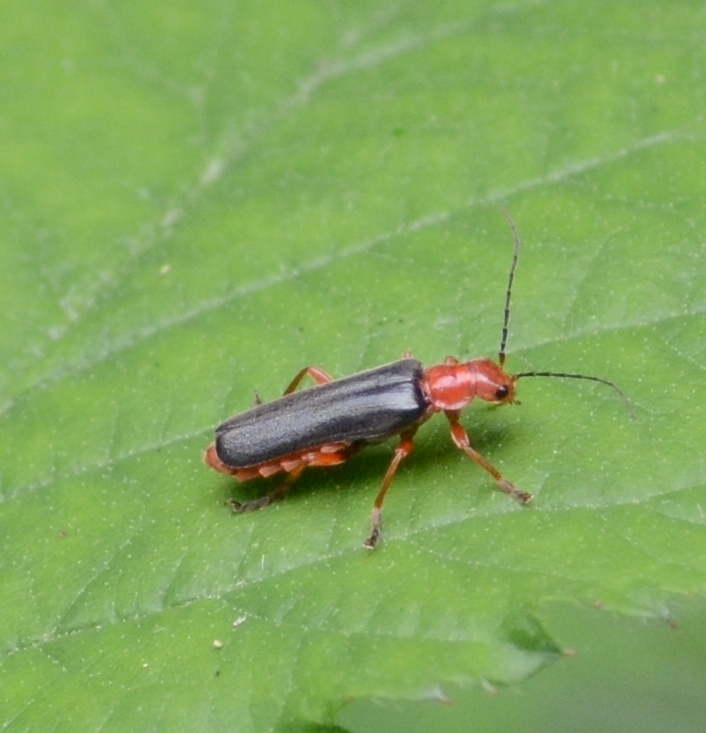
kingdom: Animalia
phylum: Arthropoda
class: Insecta
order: Coleoptera
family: Cantharidae
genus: Ancistronycha
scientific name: Ancistronycha tigurina
